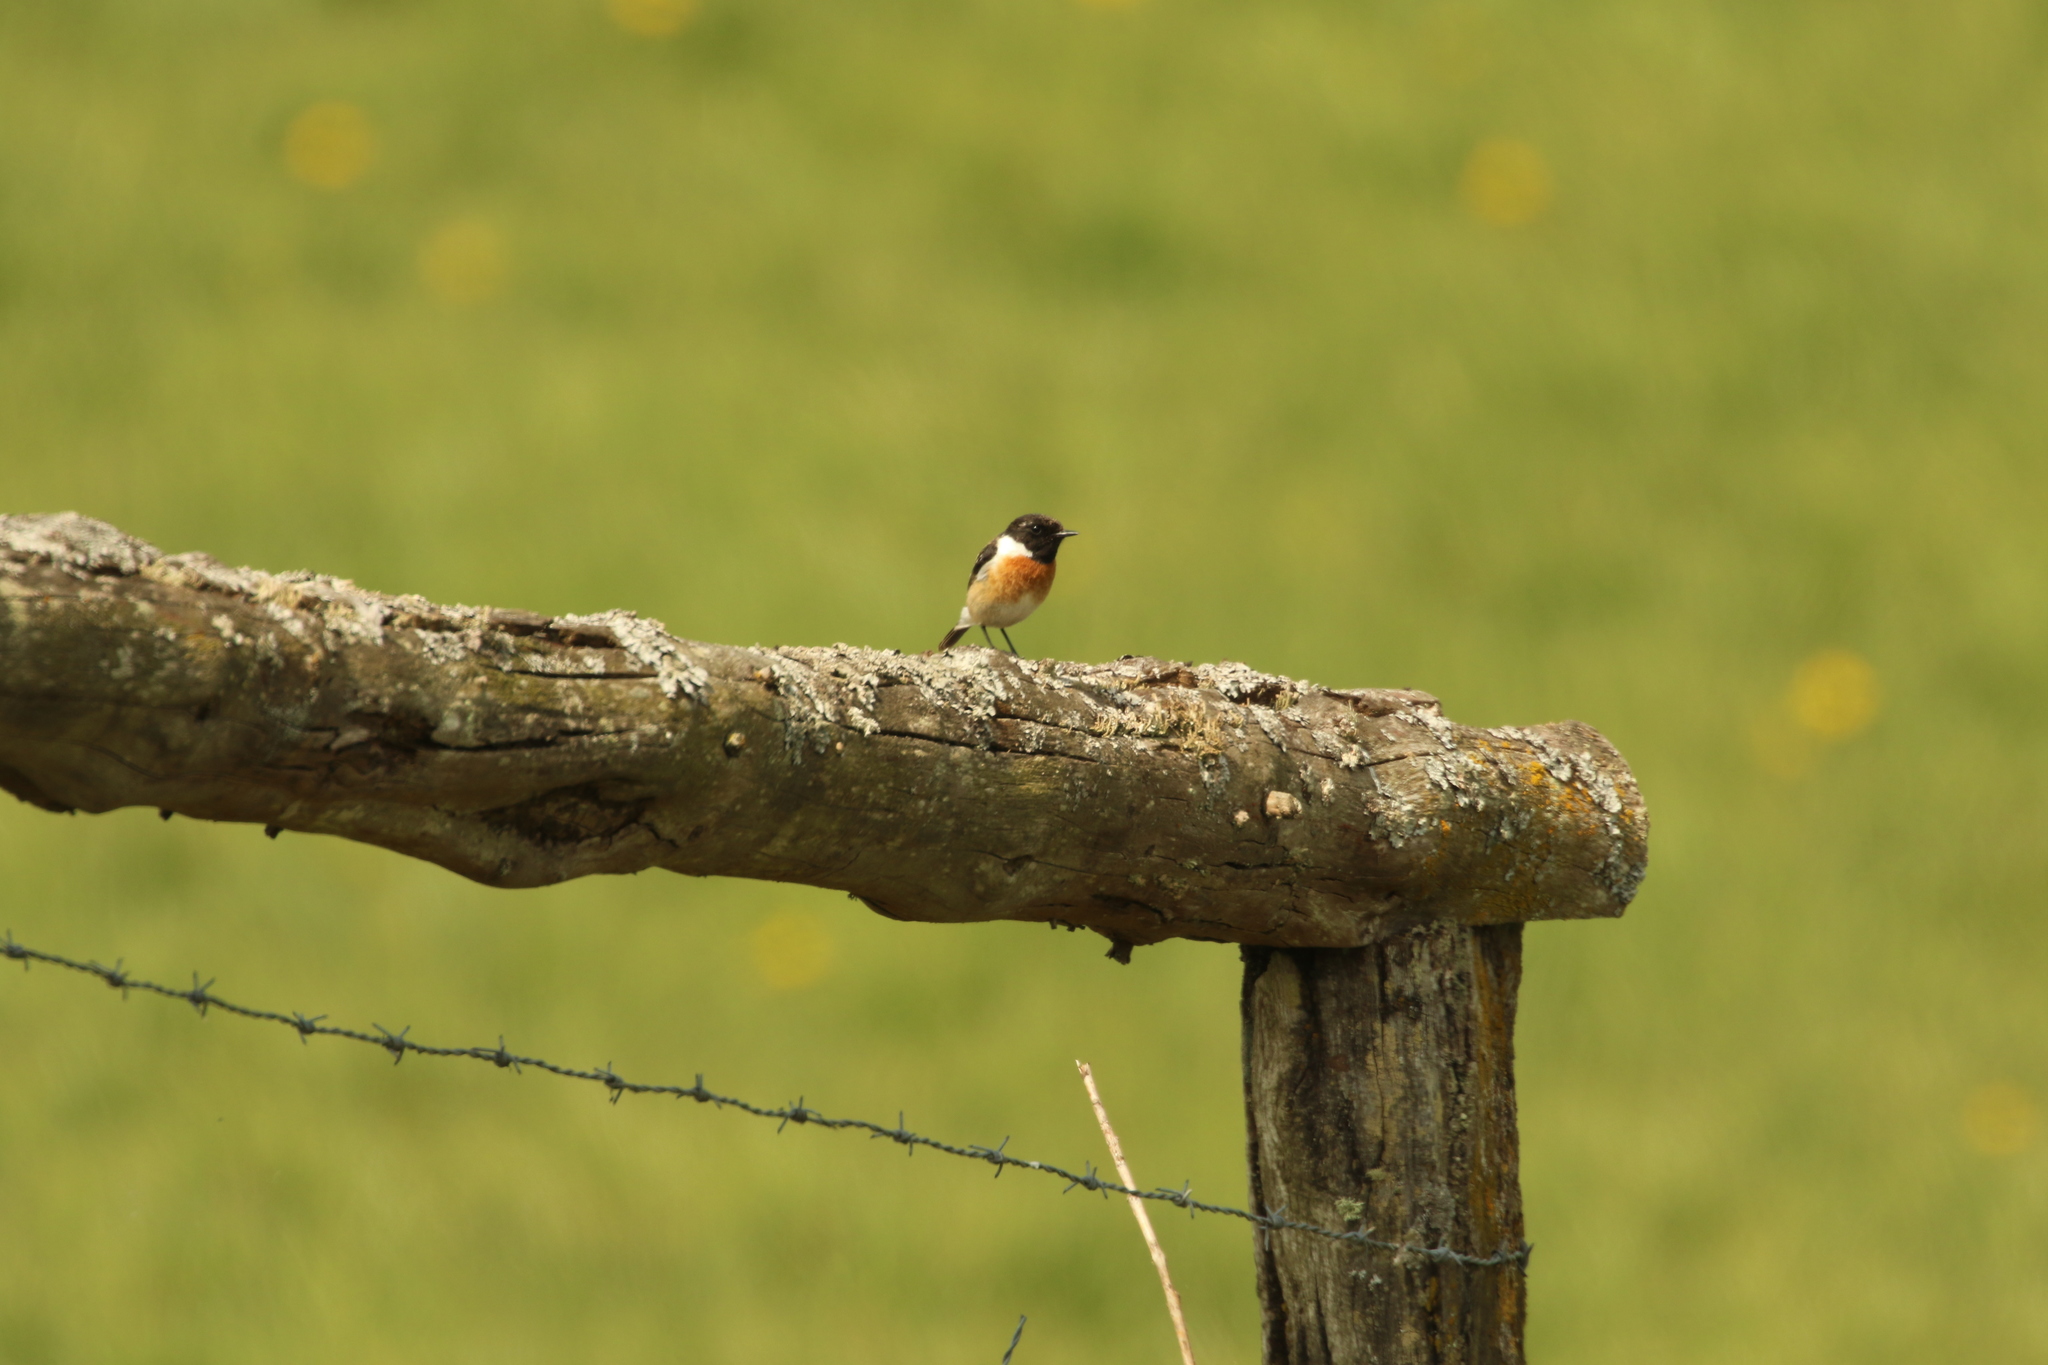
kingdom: Animalia
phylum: Chordata
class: Aves
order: Passeriformes
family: Muscicapidae
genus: Saxicola
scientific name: Saxicola rubicola
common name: European stonechat
